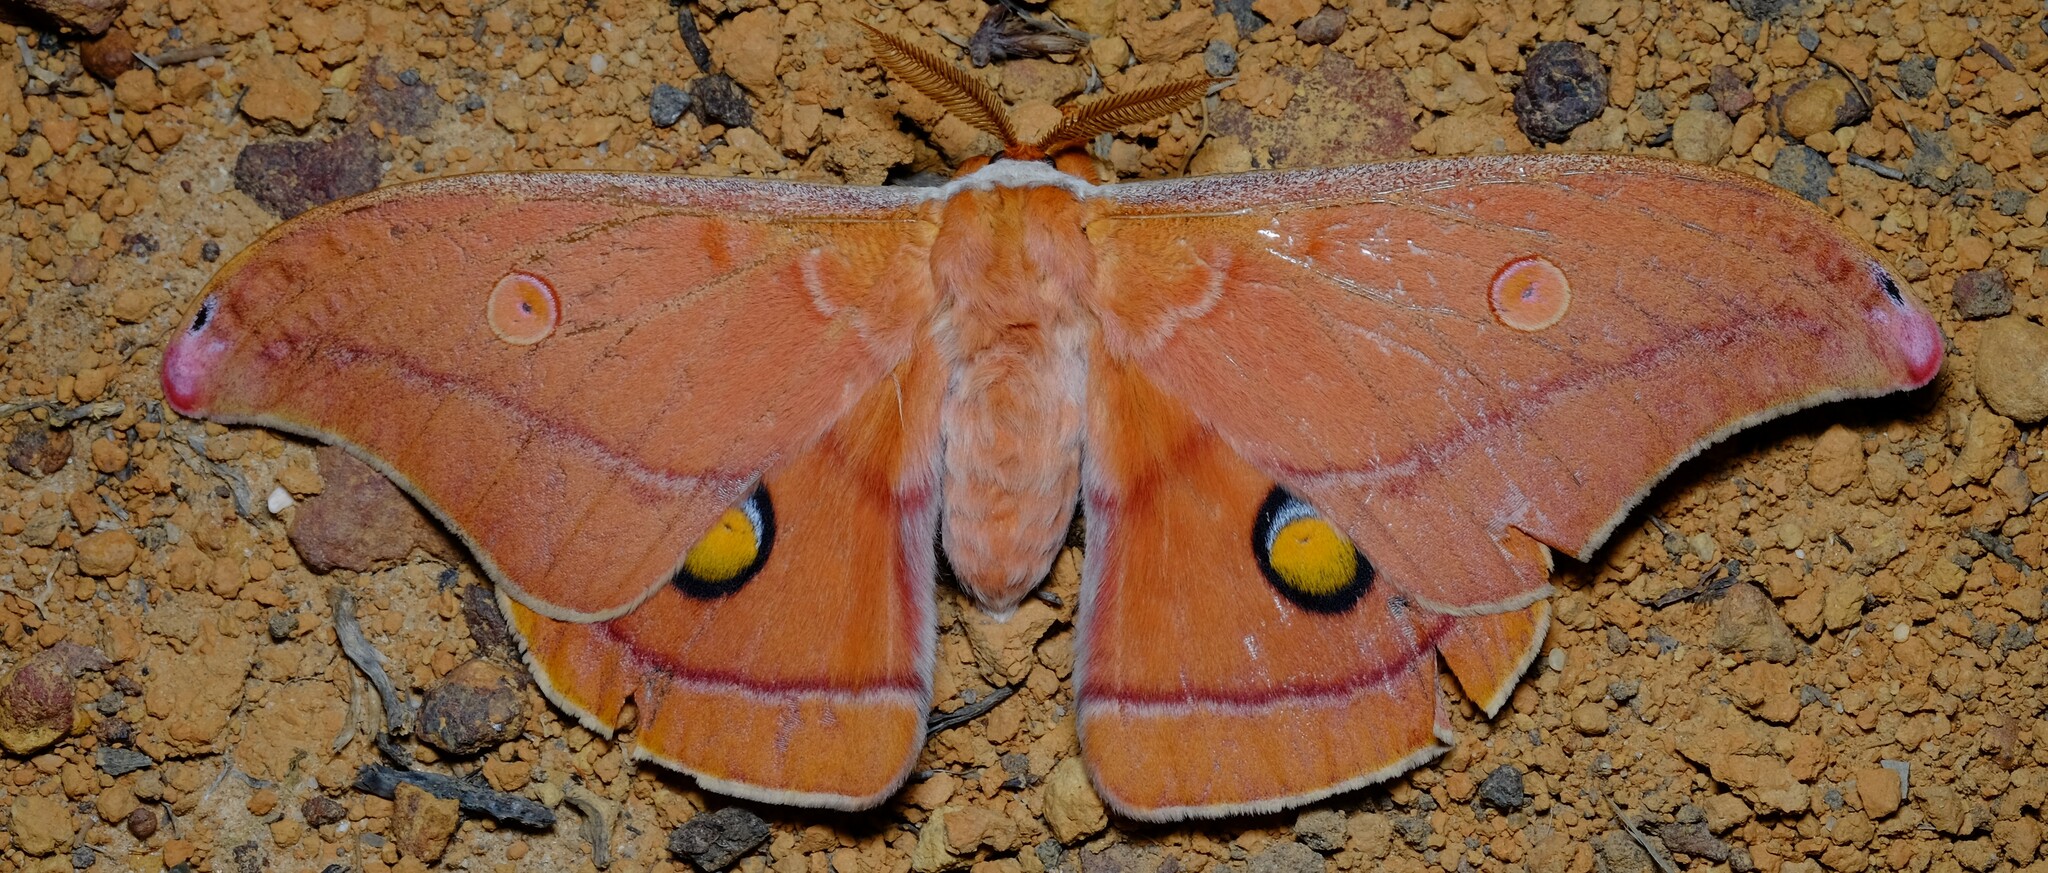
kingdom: Animalia
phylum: Arthropoda
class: Insecta
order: Lepidoptera
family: Saturniidae
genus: Opodiphthera
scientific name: Opodiphthera
